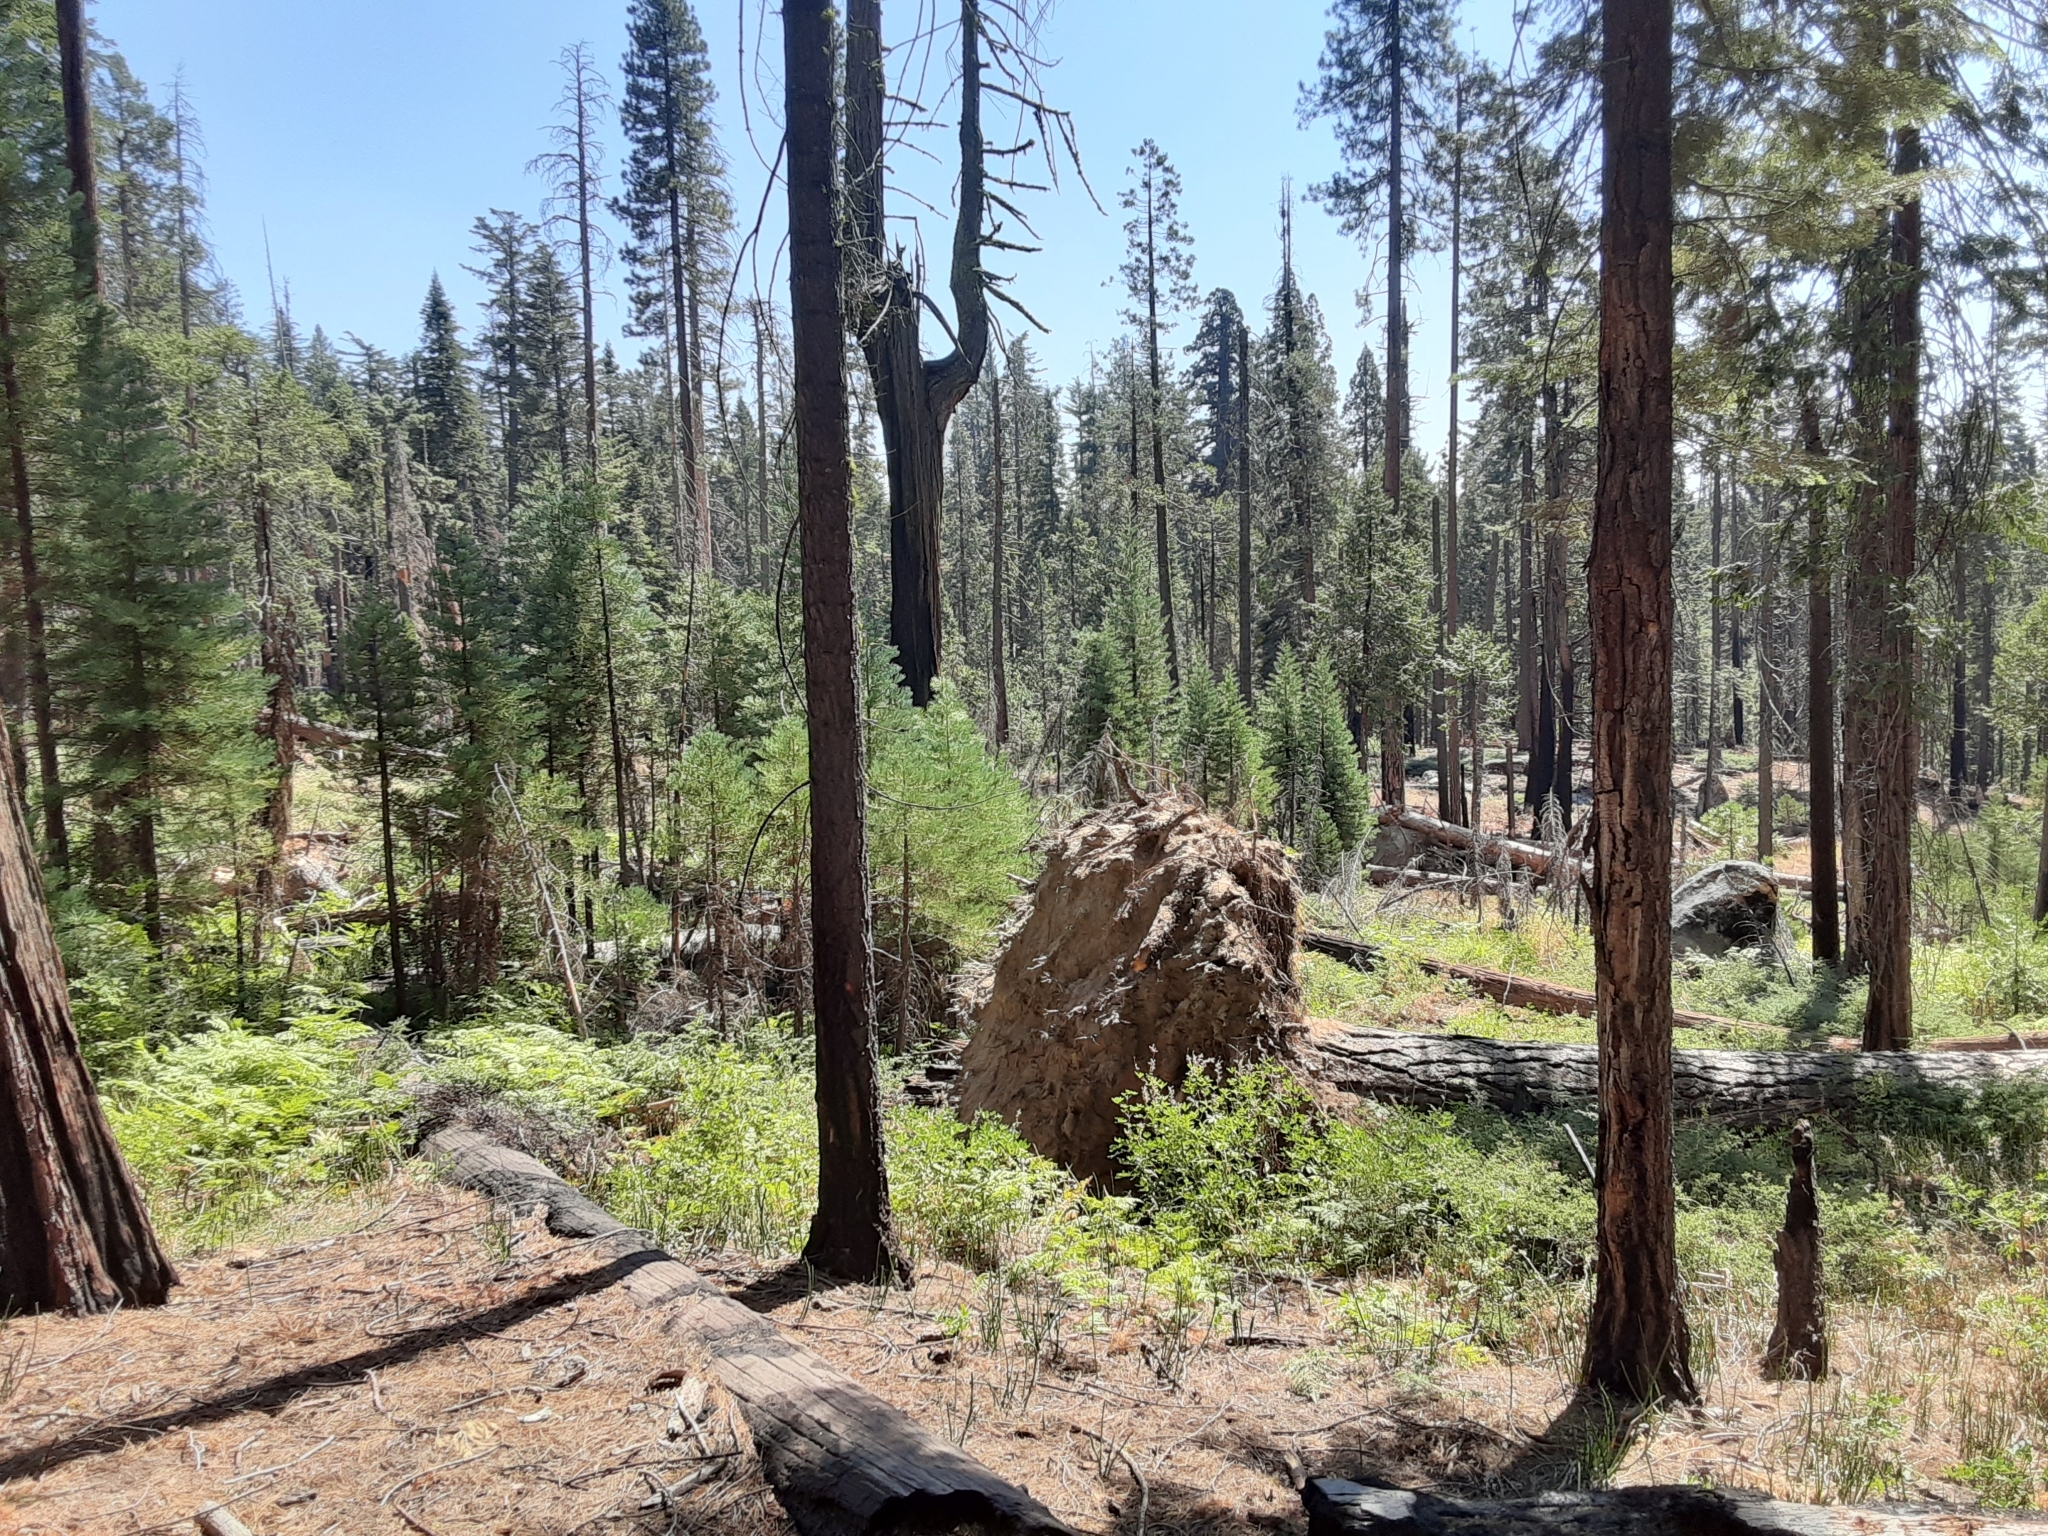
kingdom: Plantae
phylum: Tracheophyta
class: Pinopsida
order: Pinales
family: Cupressaceae
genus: Sequoiadendron
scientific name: Sequoiadendron giganteum
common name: Wellingtonia
